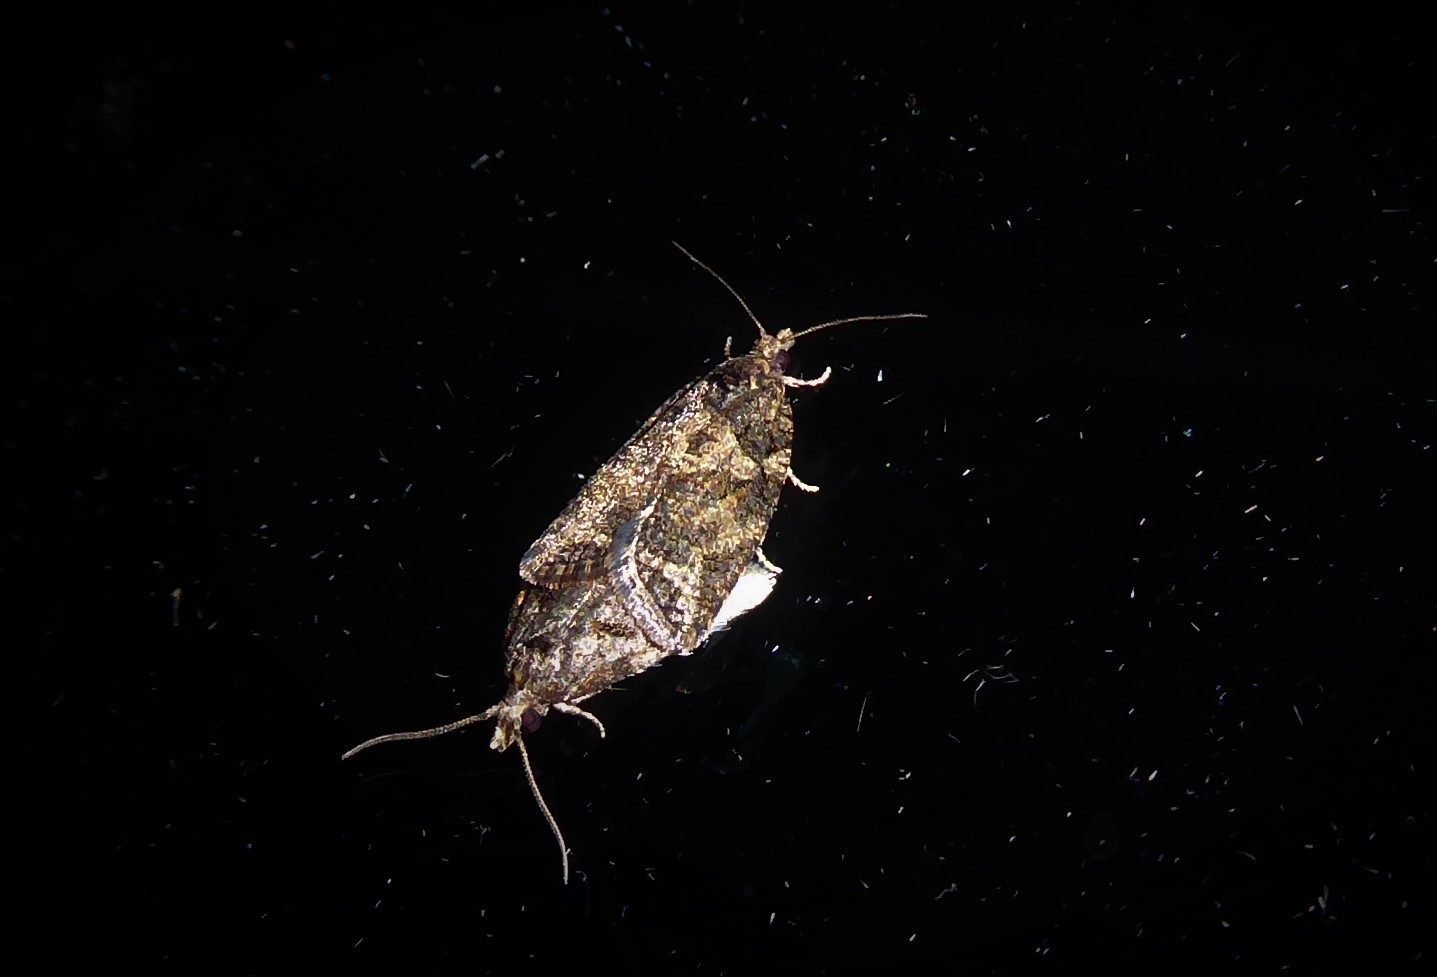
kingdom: Animalia
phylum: Arthropoda
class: Insecta
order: Lepidoptera
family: Tortricidae
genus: Capua
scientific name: Capua intractana
